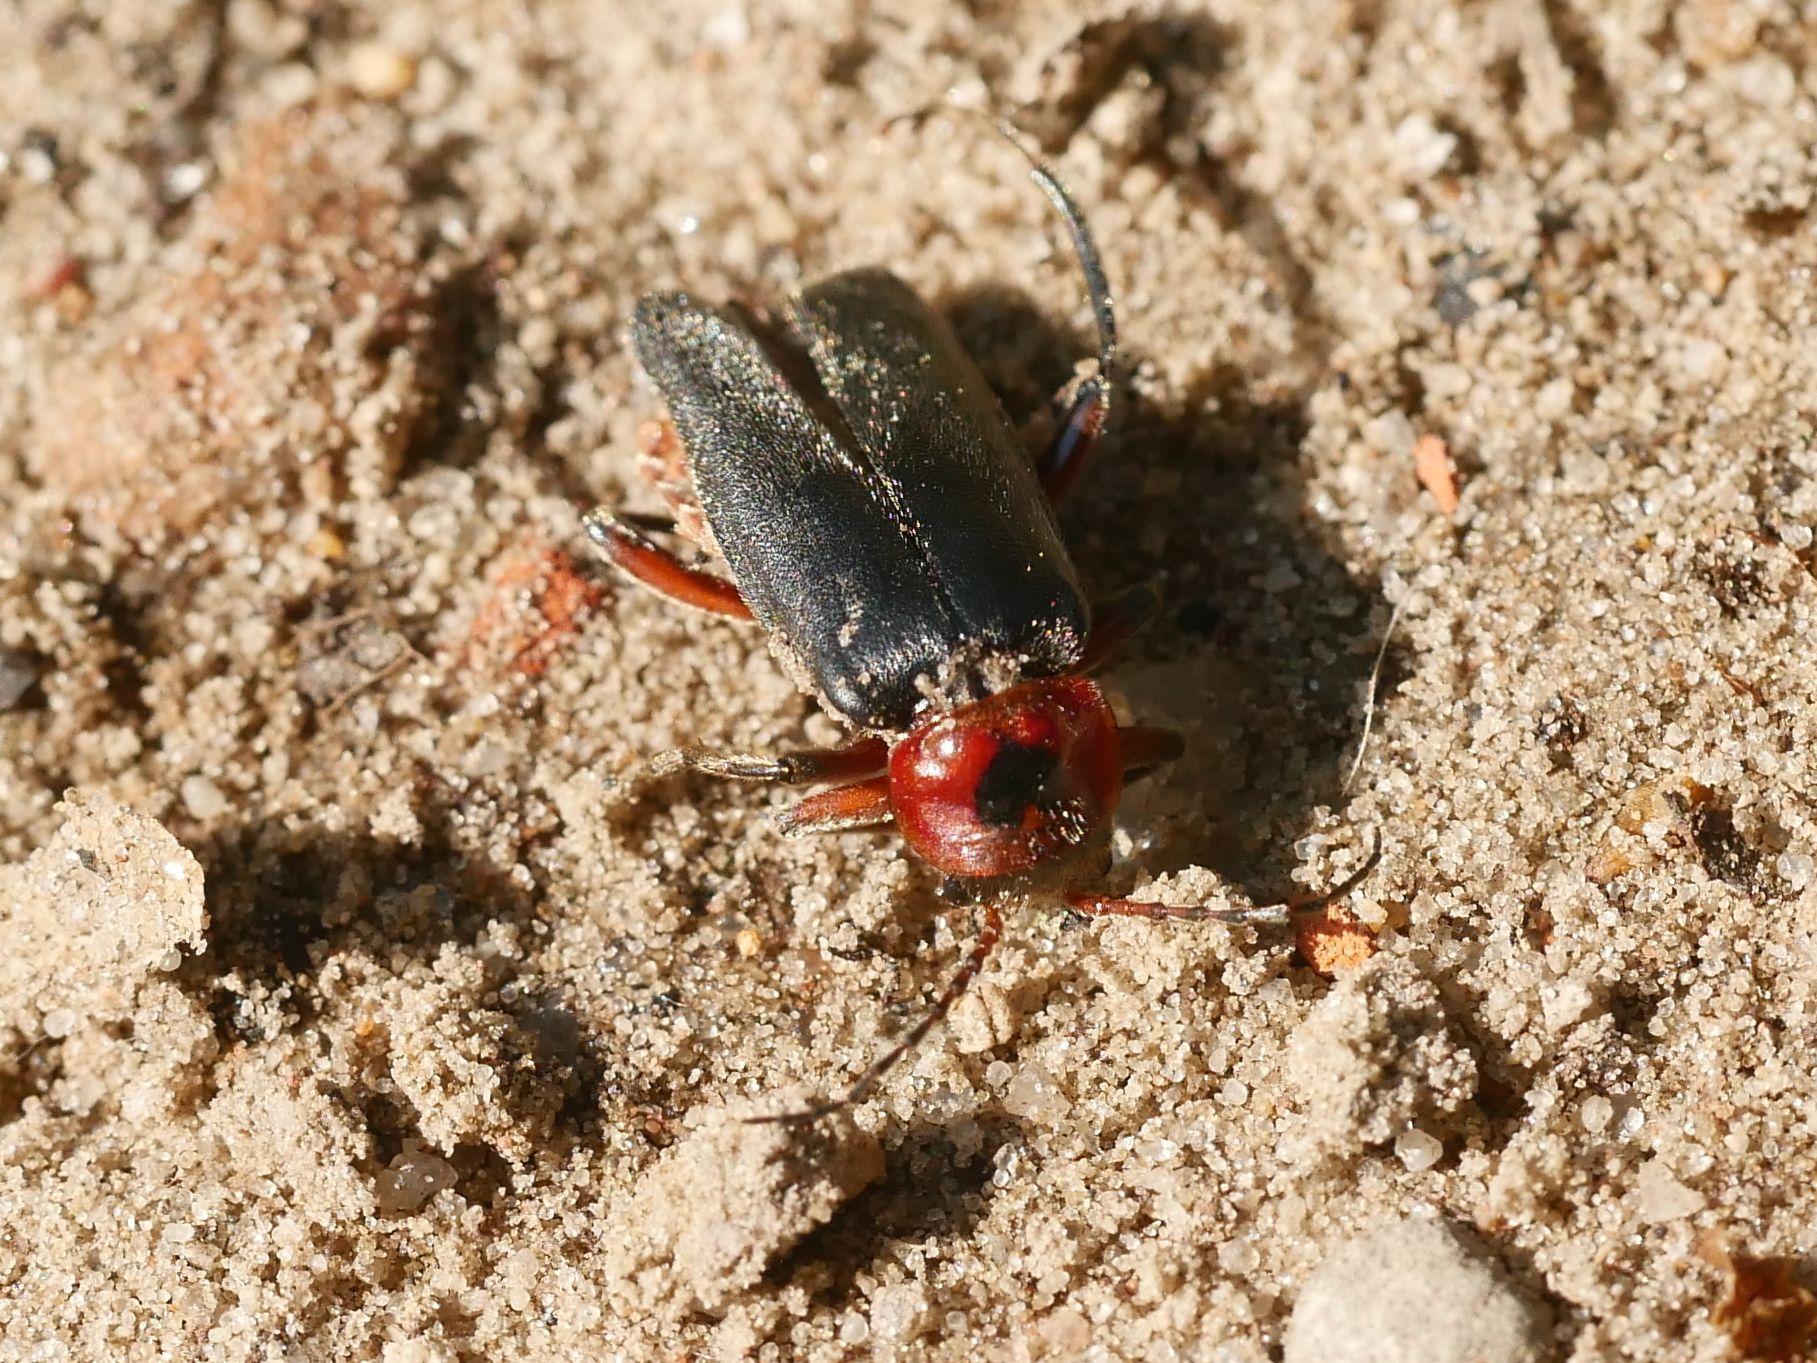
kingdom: Animalia
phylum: Arthropoda
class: Insecta
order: Coleoptera
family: Cantharidae
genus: Cantharis
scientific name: Cantharis rustica
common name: Soldier beetle
